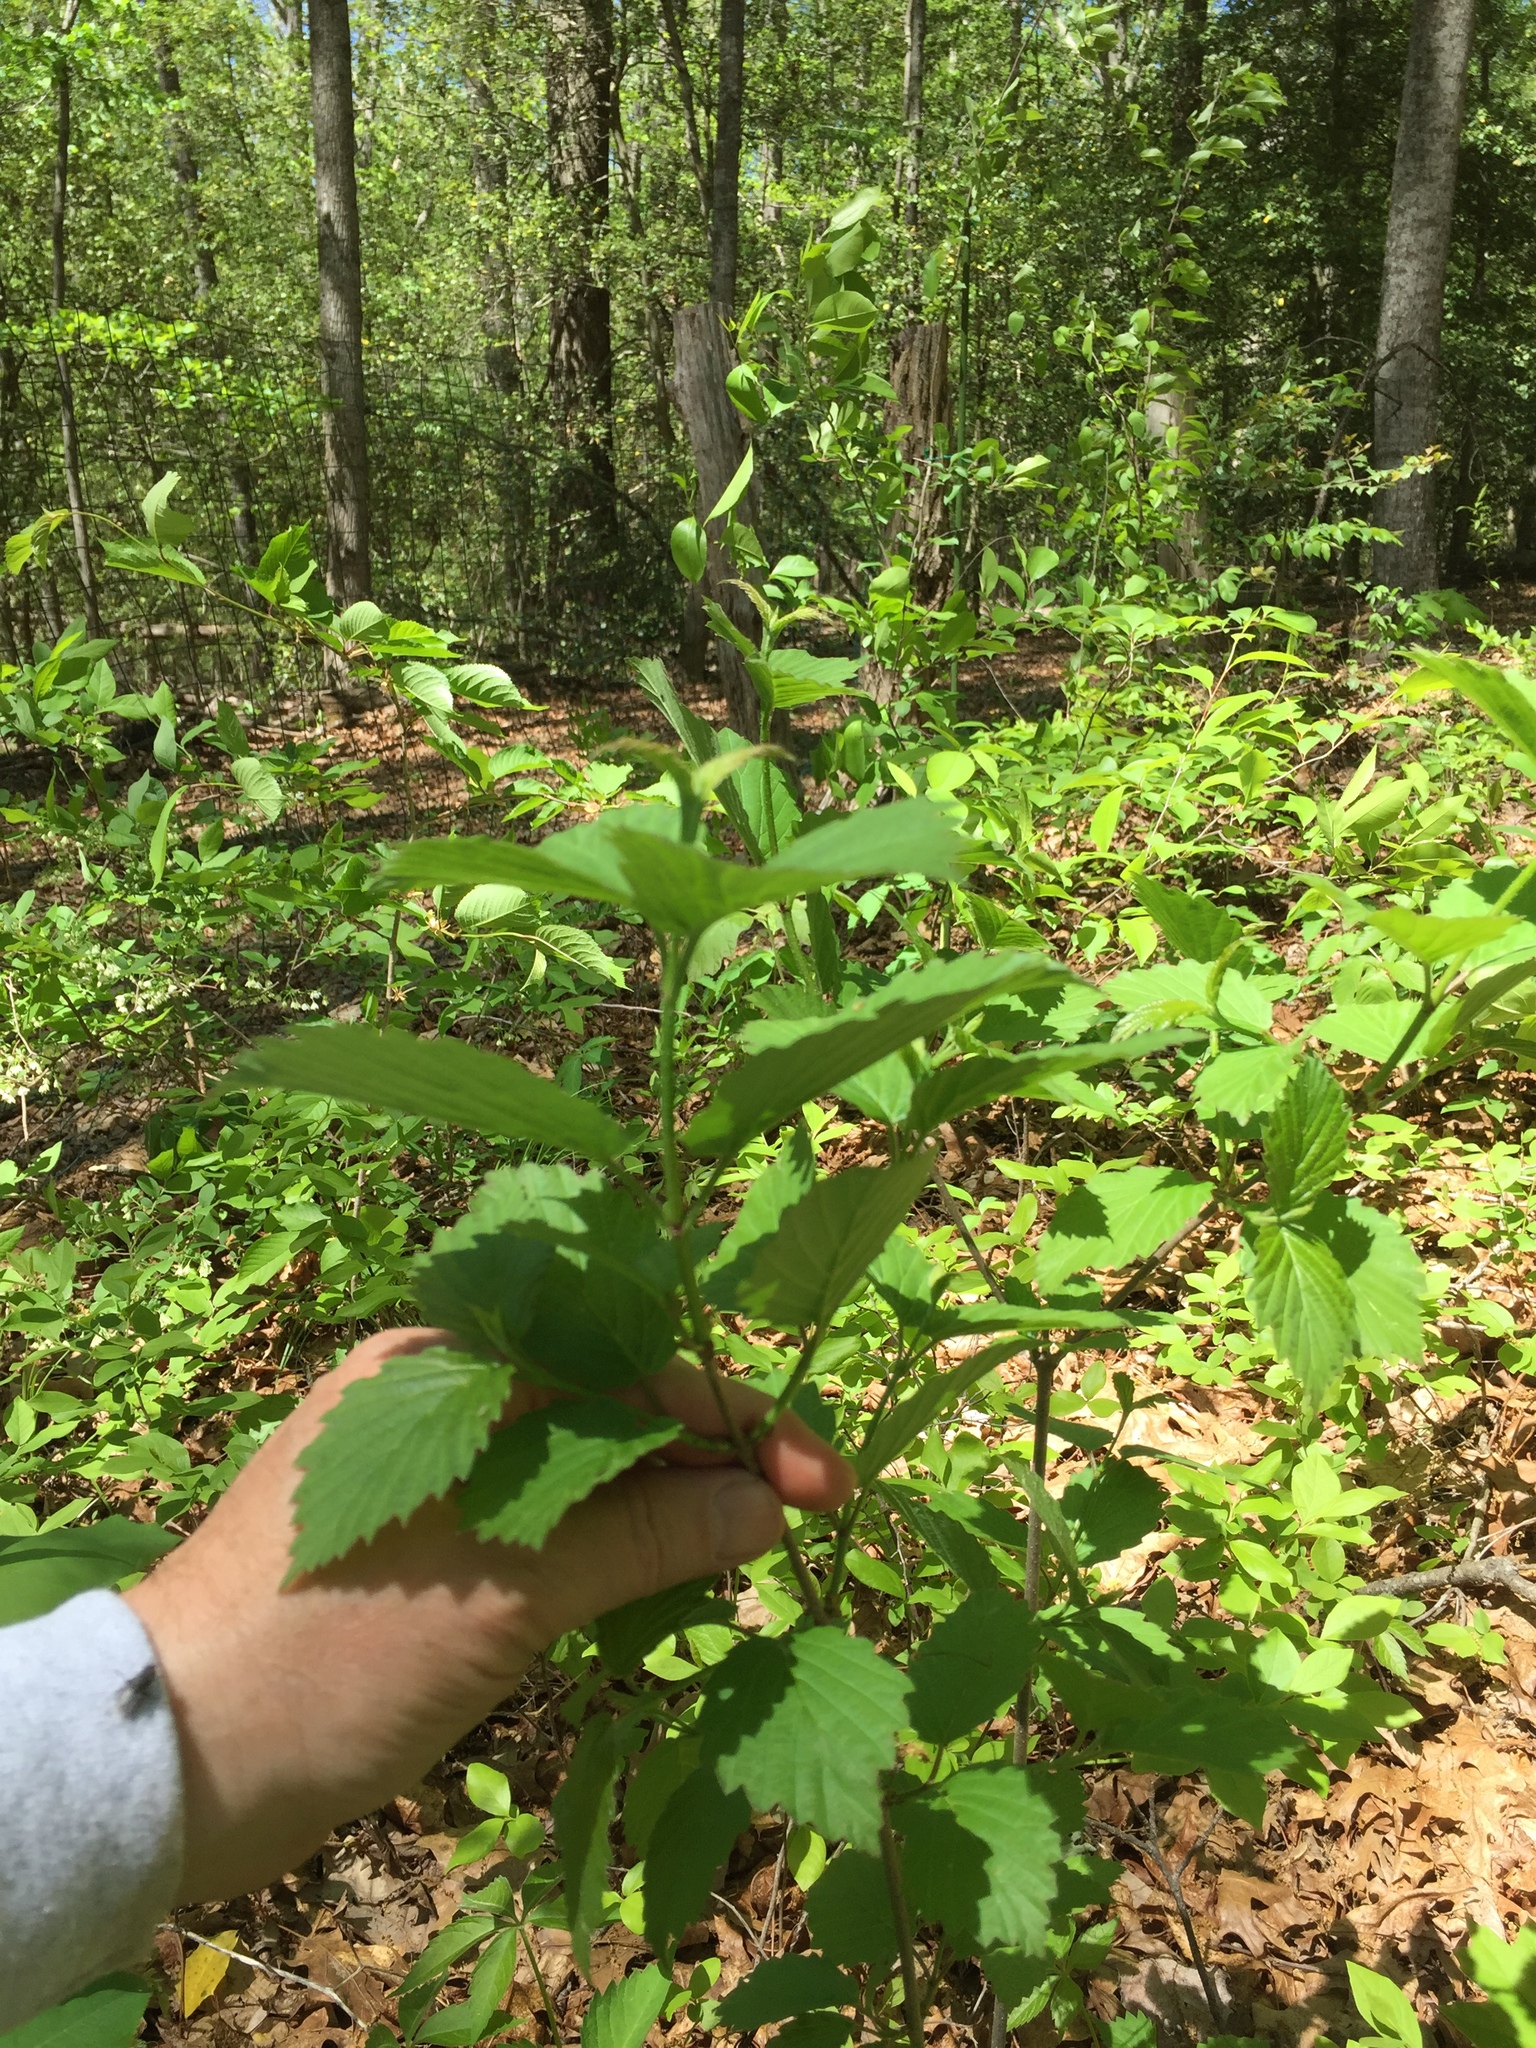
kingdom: Plantae
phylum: Tracheophyta
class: Magnoliopsida
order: Dipsacales
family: Viburnaceae
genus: Viburnum
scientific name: Viburnum dentatum
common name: Arrow-wood
